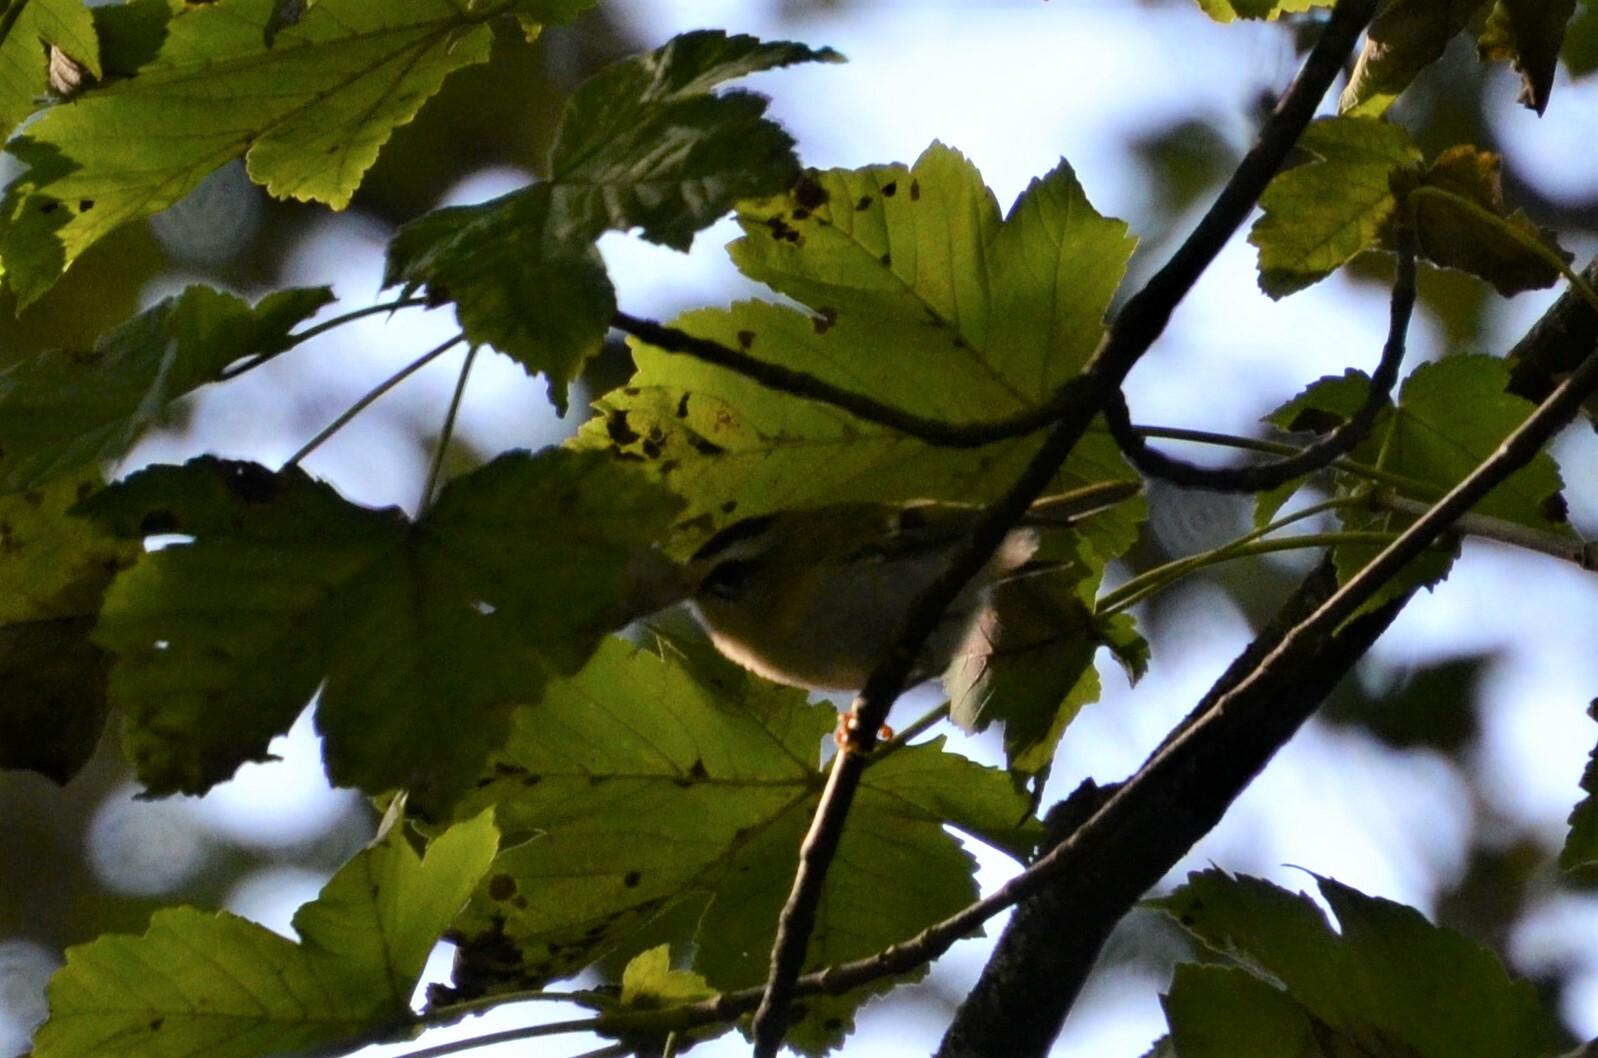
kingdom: Animalia
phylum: Chordata
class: Aves
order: Passeriformes
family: Regulidae
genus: Regulus
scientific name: Regulus ignicapilla
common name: Firecrest
